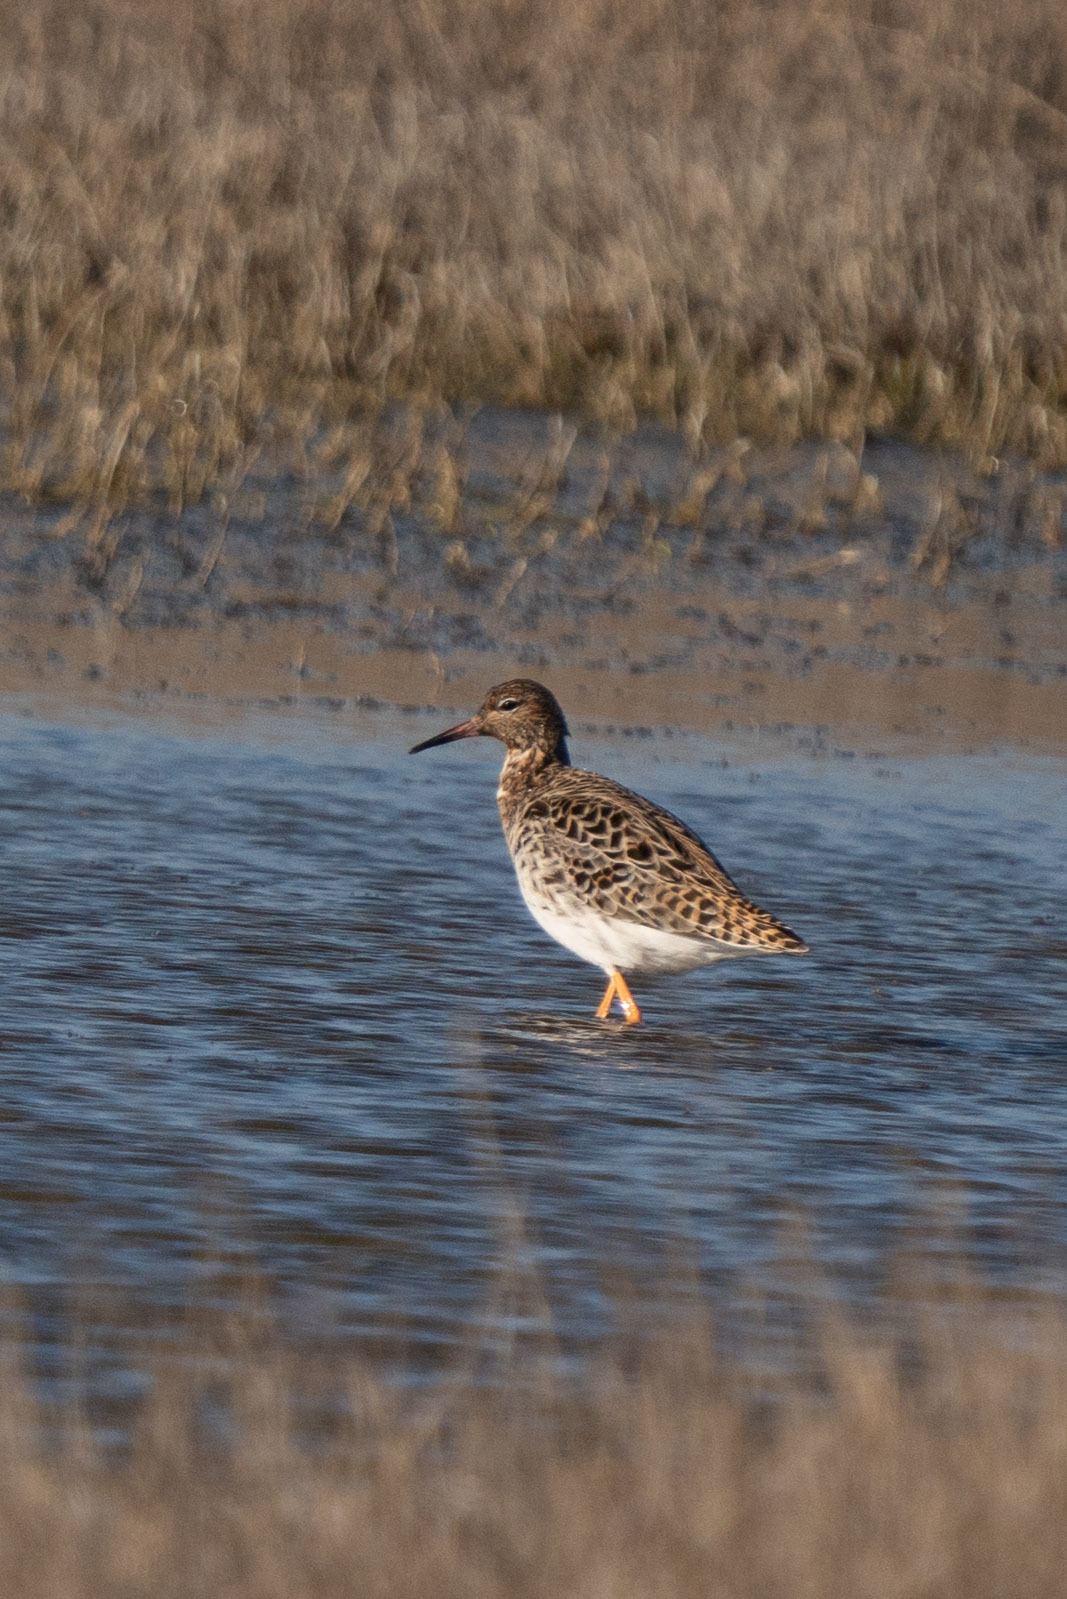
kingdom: Animalia
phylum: Chordata
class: Aves
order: Charadriiformes
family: Scolopacidae
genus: Calidris
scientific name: Calidris pugnax
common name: Ruff
